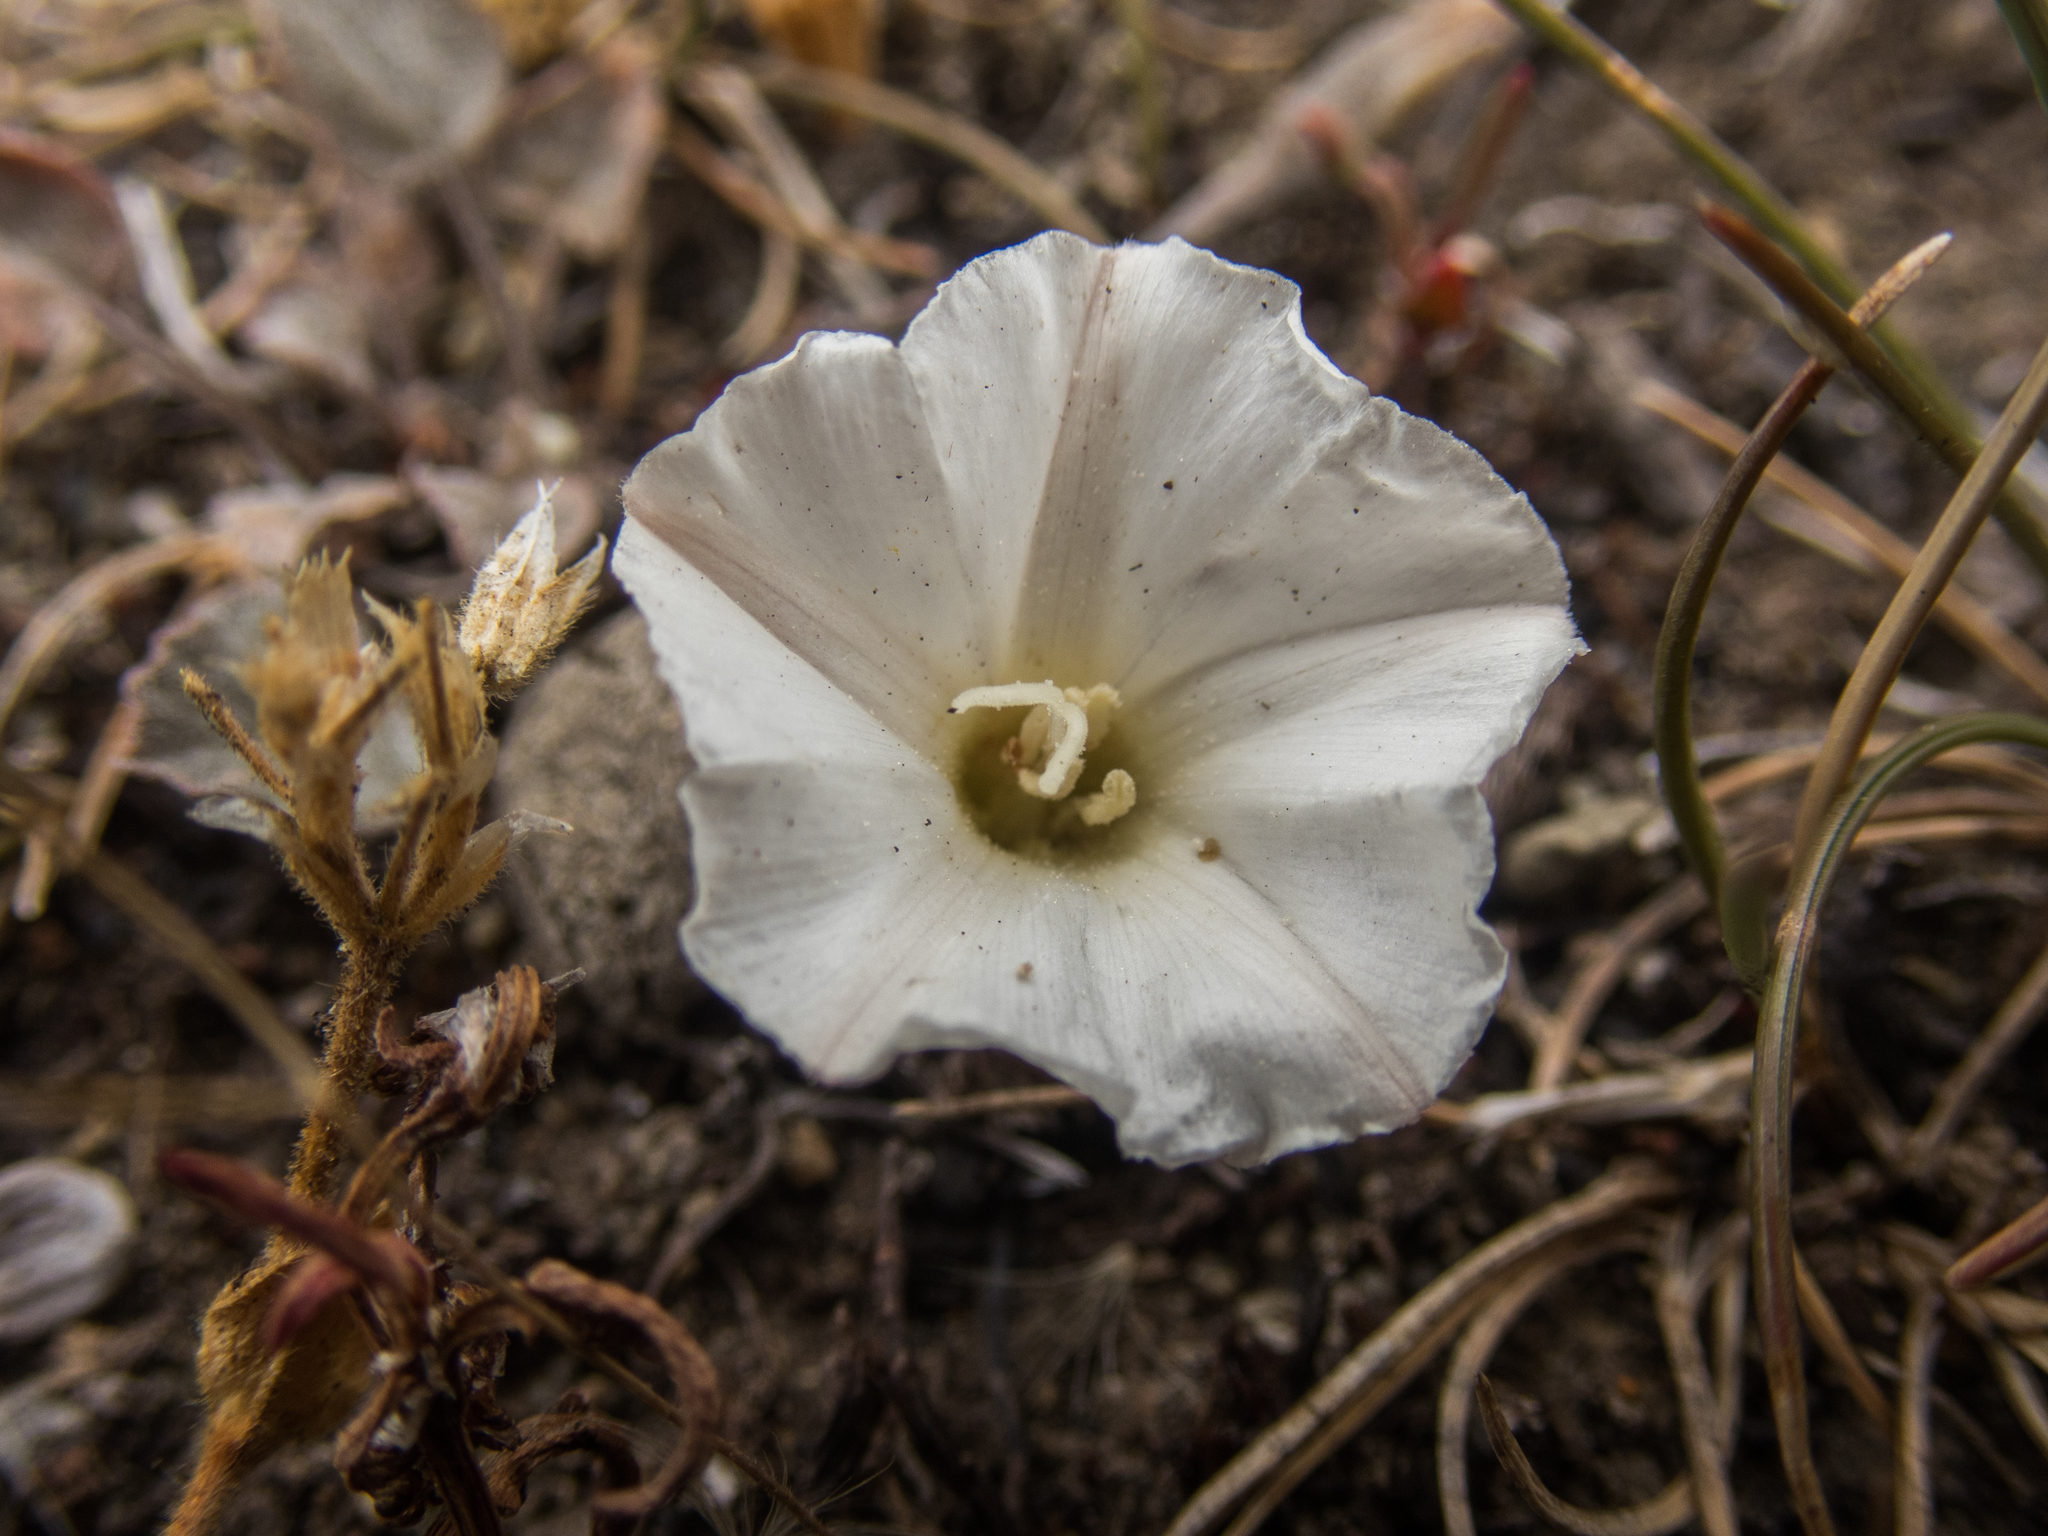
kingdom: Plantae
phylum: Tracheophyta
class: Magnoliopsida
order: Solanales
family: Convolvulaceae
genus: Convolvulus
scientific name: Convolvulus verecundus
